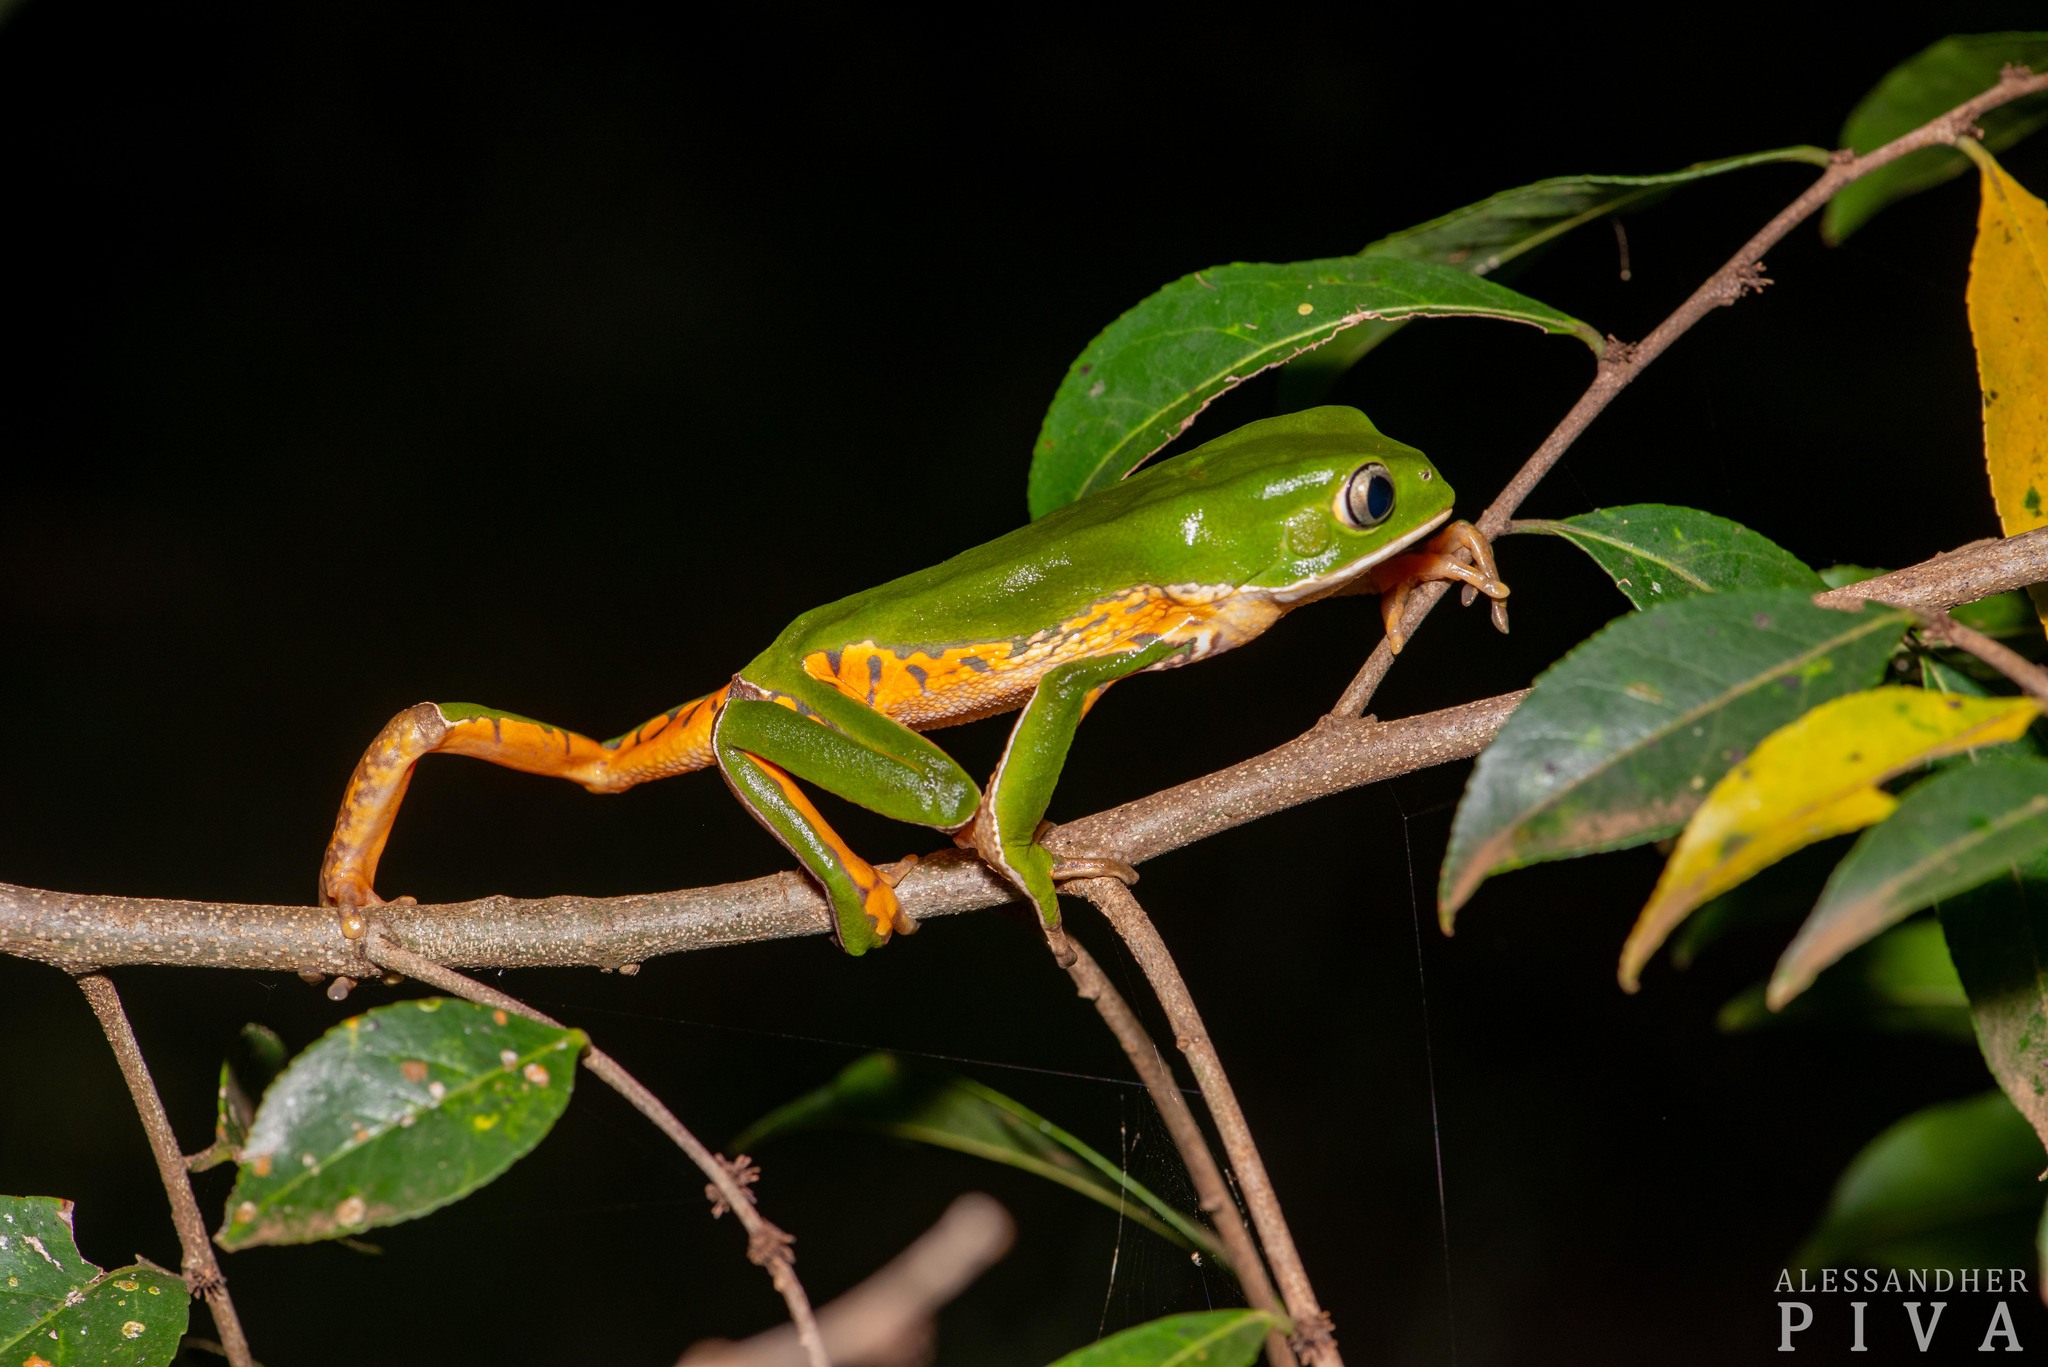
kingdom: Animalia
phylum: Chordata
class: Amphibia
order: Anura
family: Phyllomedusidae
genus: Phyllomedusa
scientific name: Phyllomedusa tetraploidea
